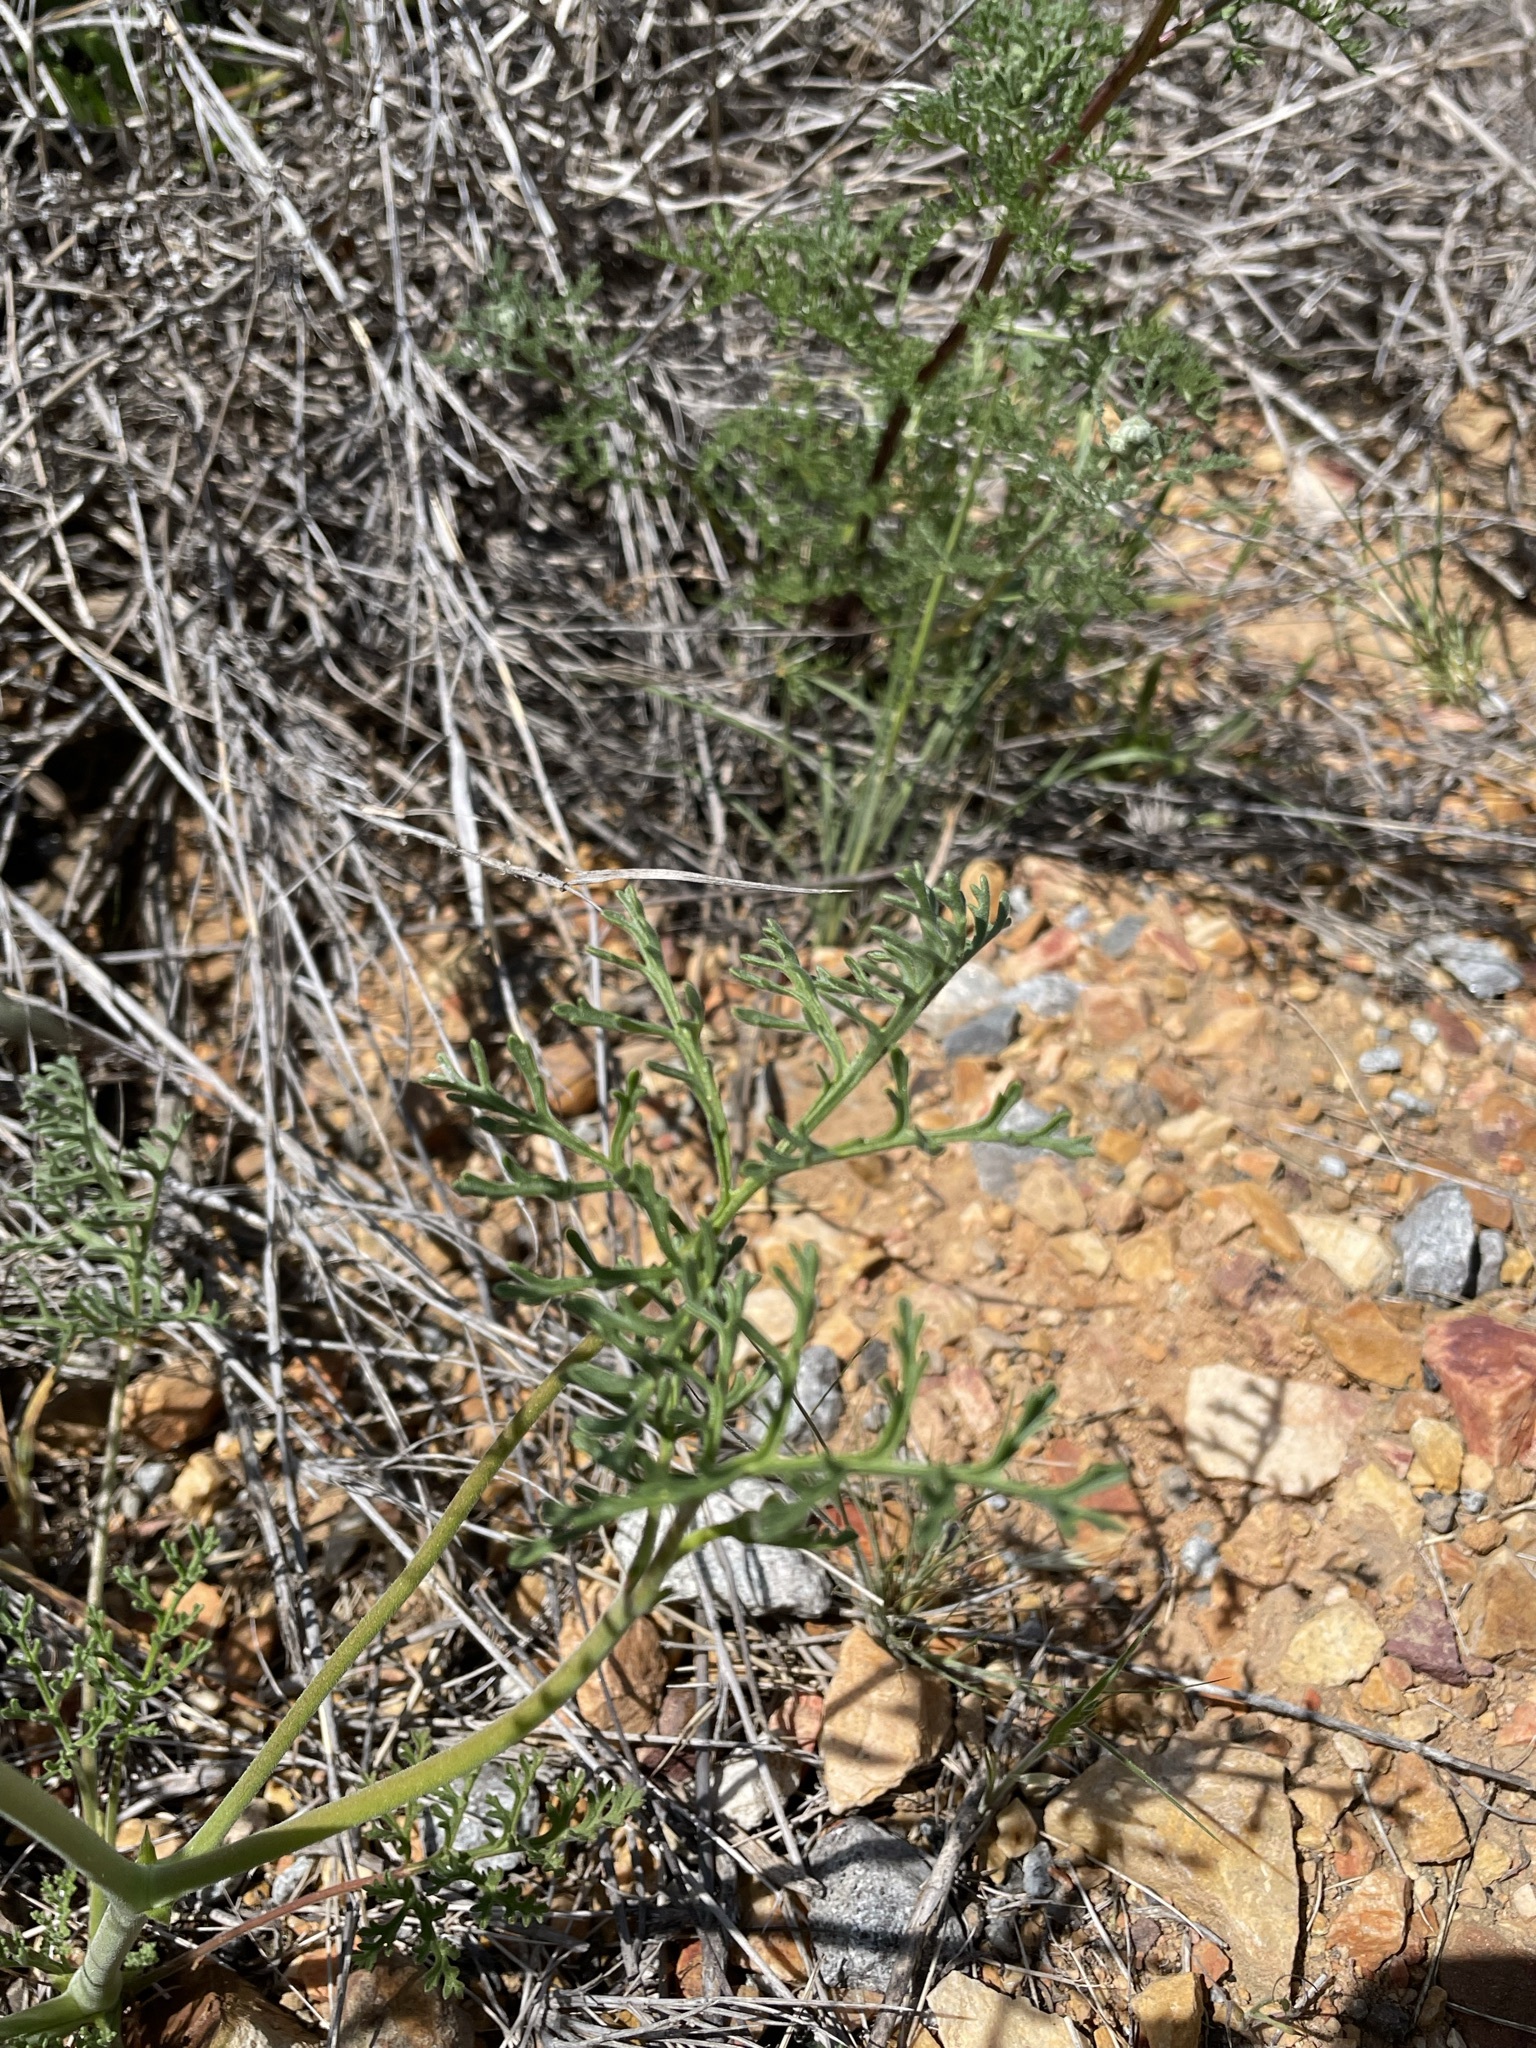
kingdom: Plantae
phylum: Tracheophyta
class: Magnoliopsida
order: Geraniales
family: Geraniaceae
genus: Pelargonium
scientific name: Pelargonium senecioides
